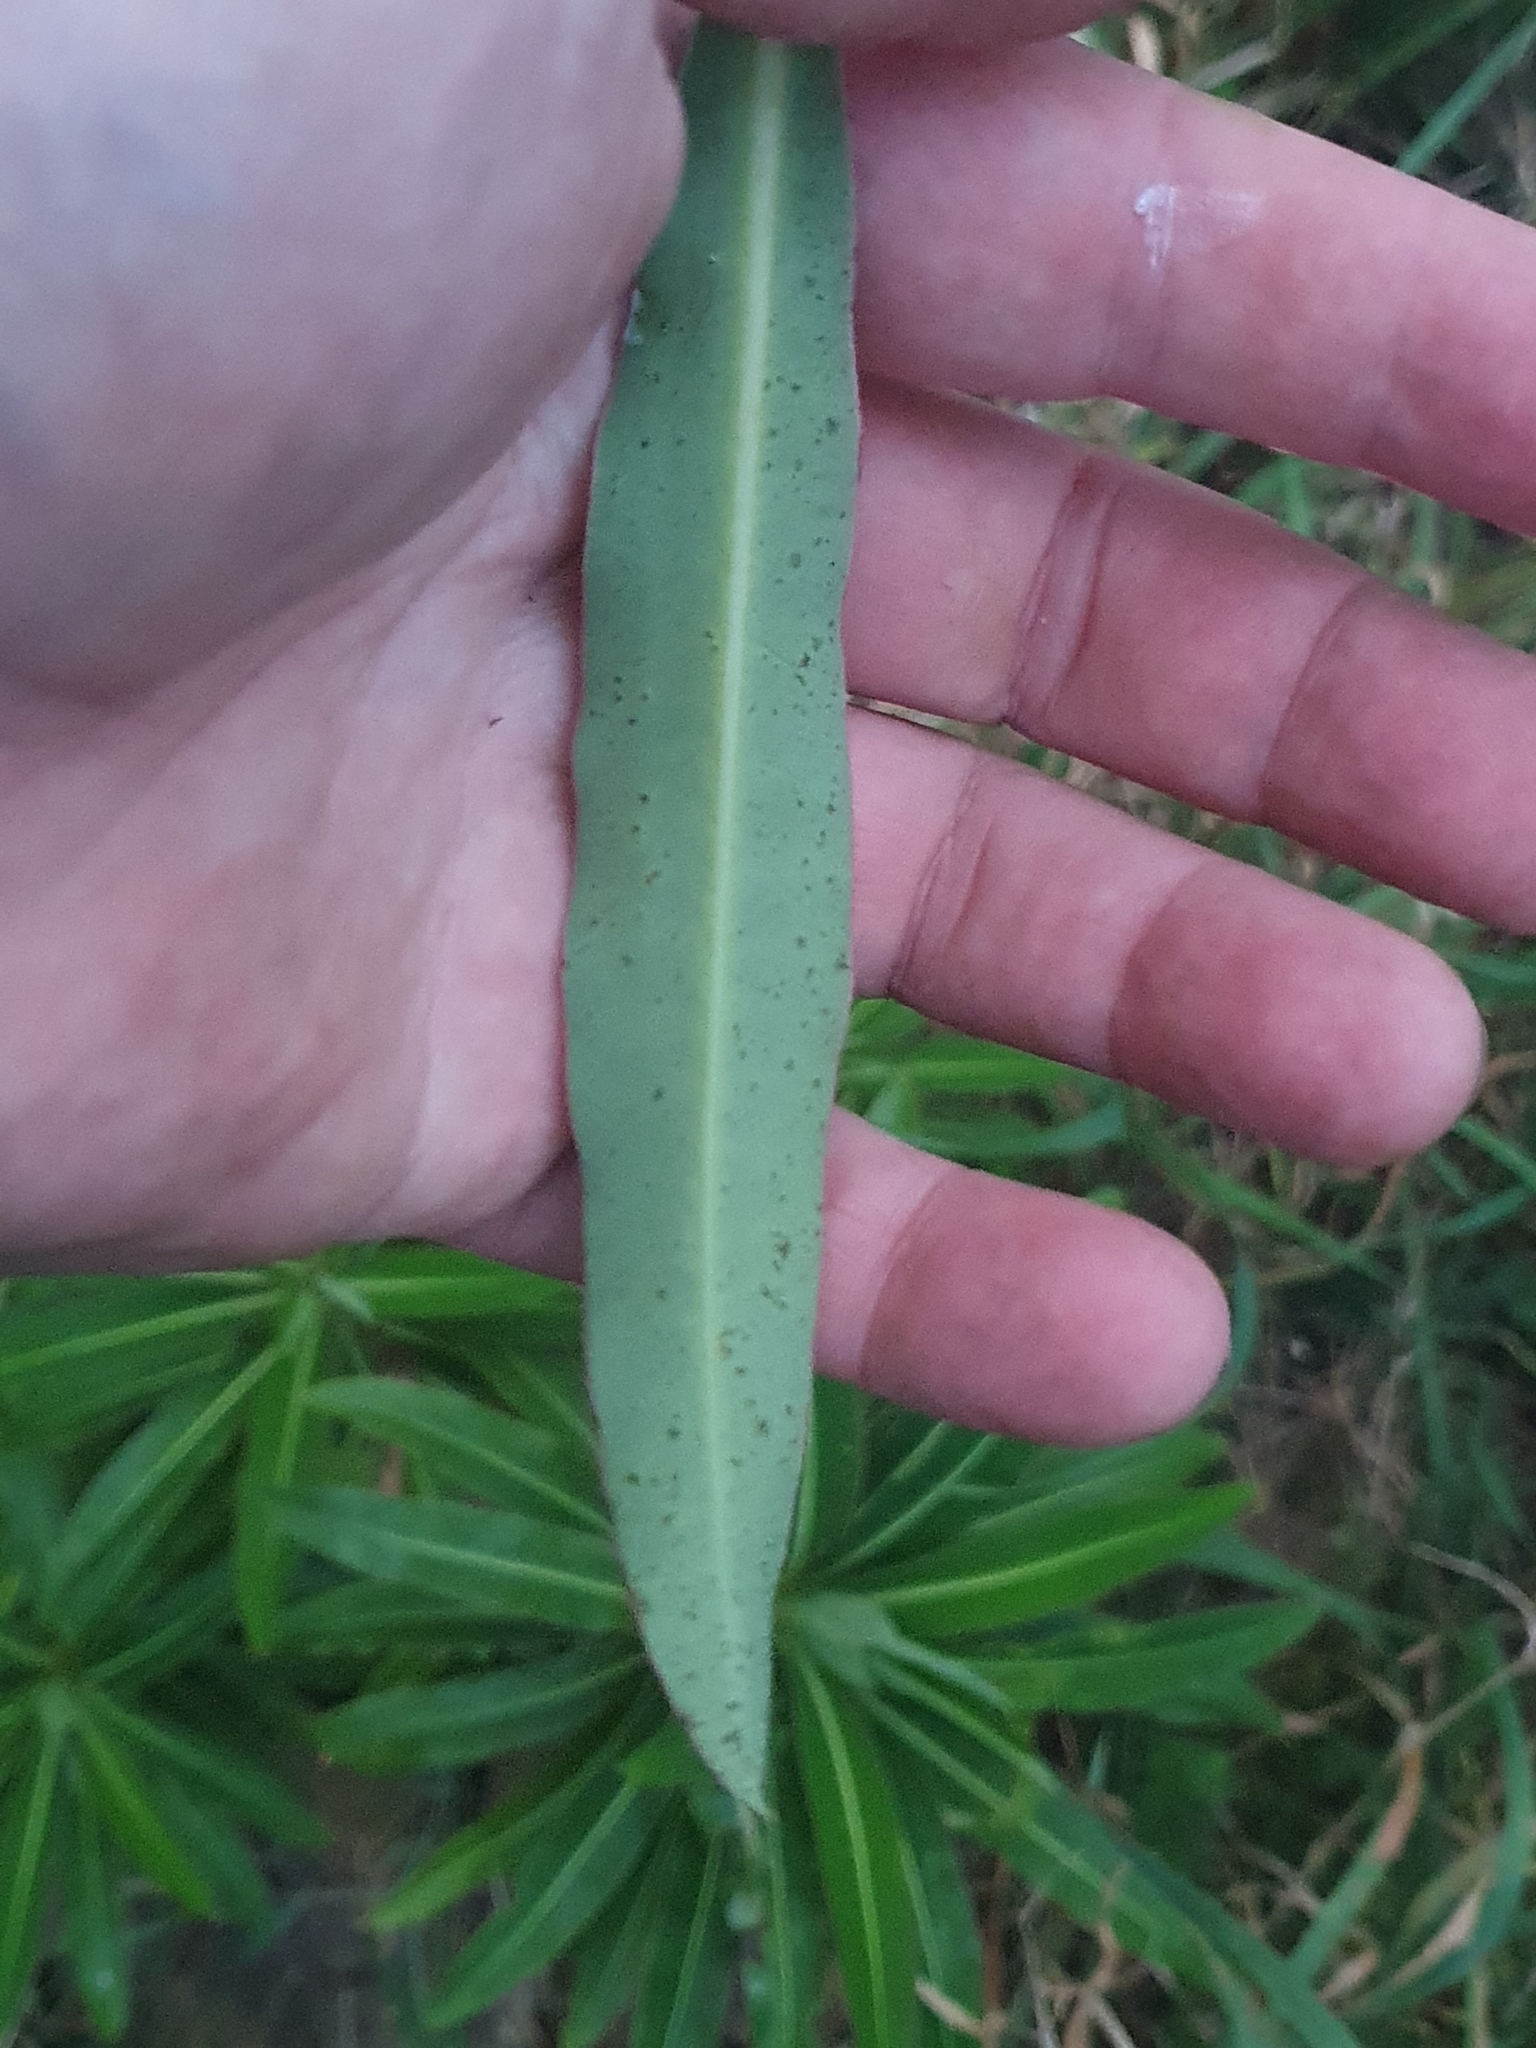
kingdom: Plantae
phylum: Tracheophyta
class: Magnoliopsida
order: Brassicales
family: Brassicaceae
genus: Erysimum
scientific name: Erysimum cheiri
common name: Wallflower
